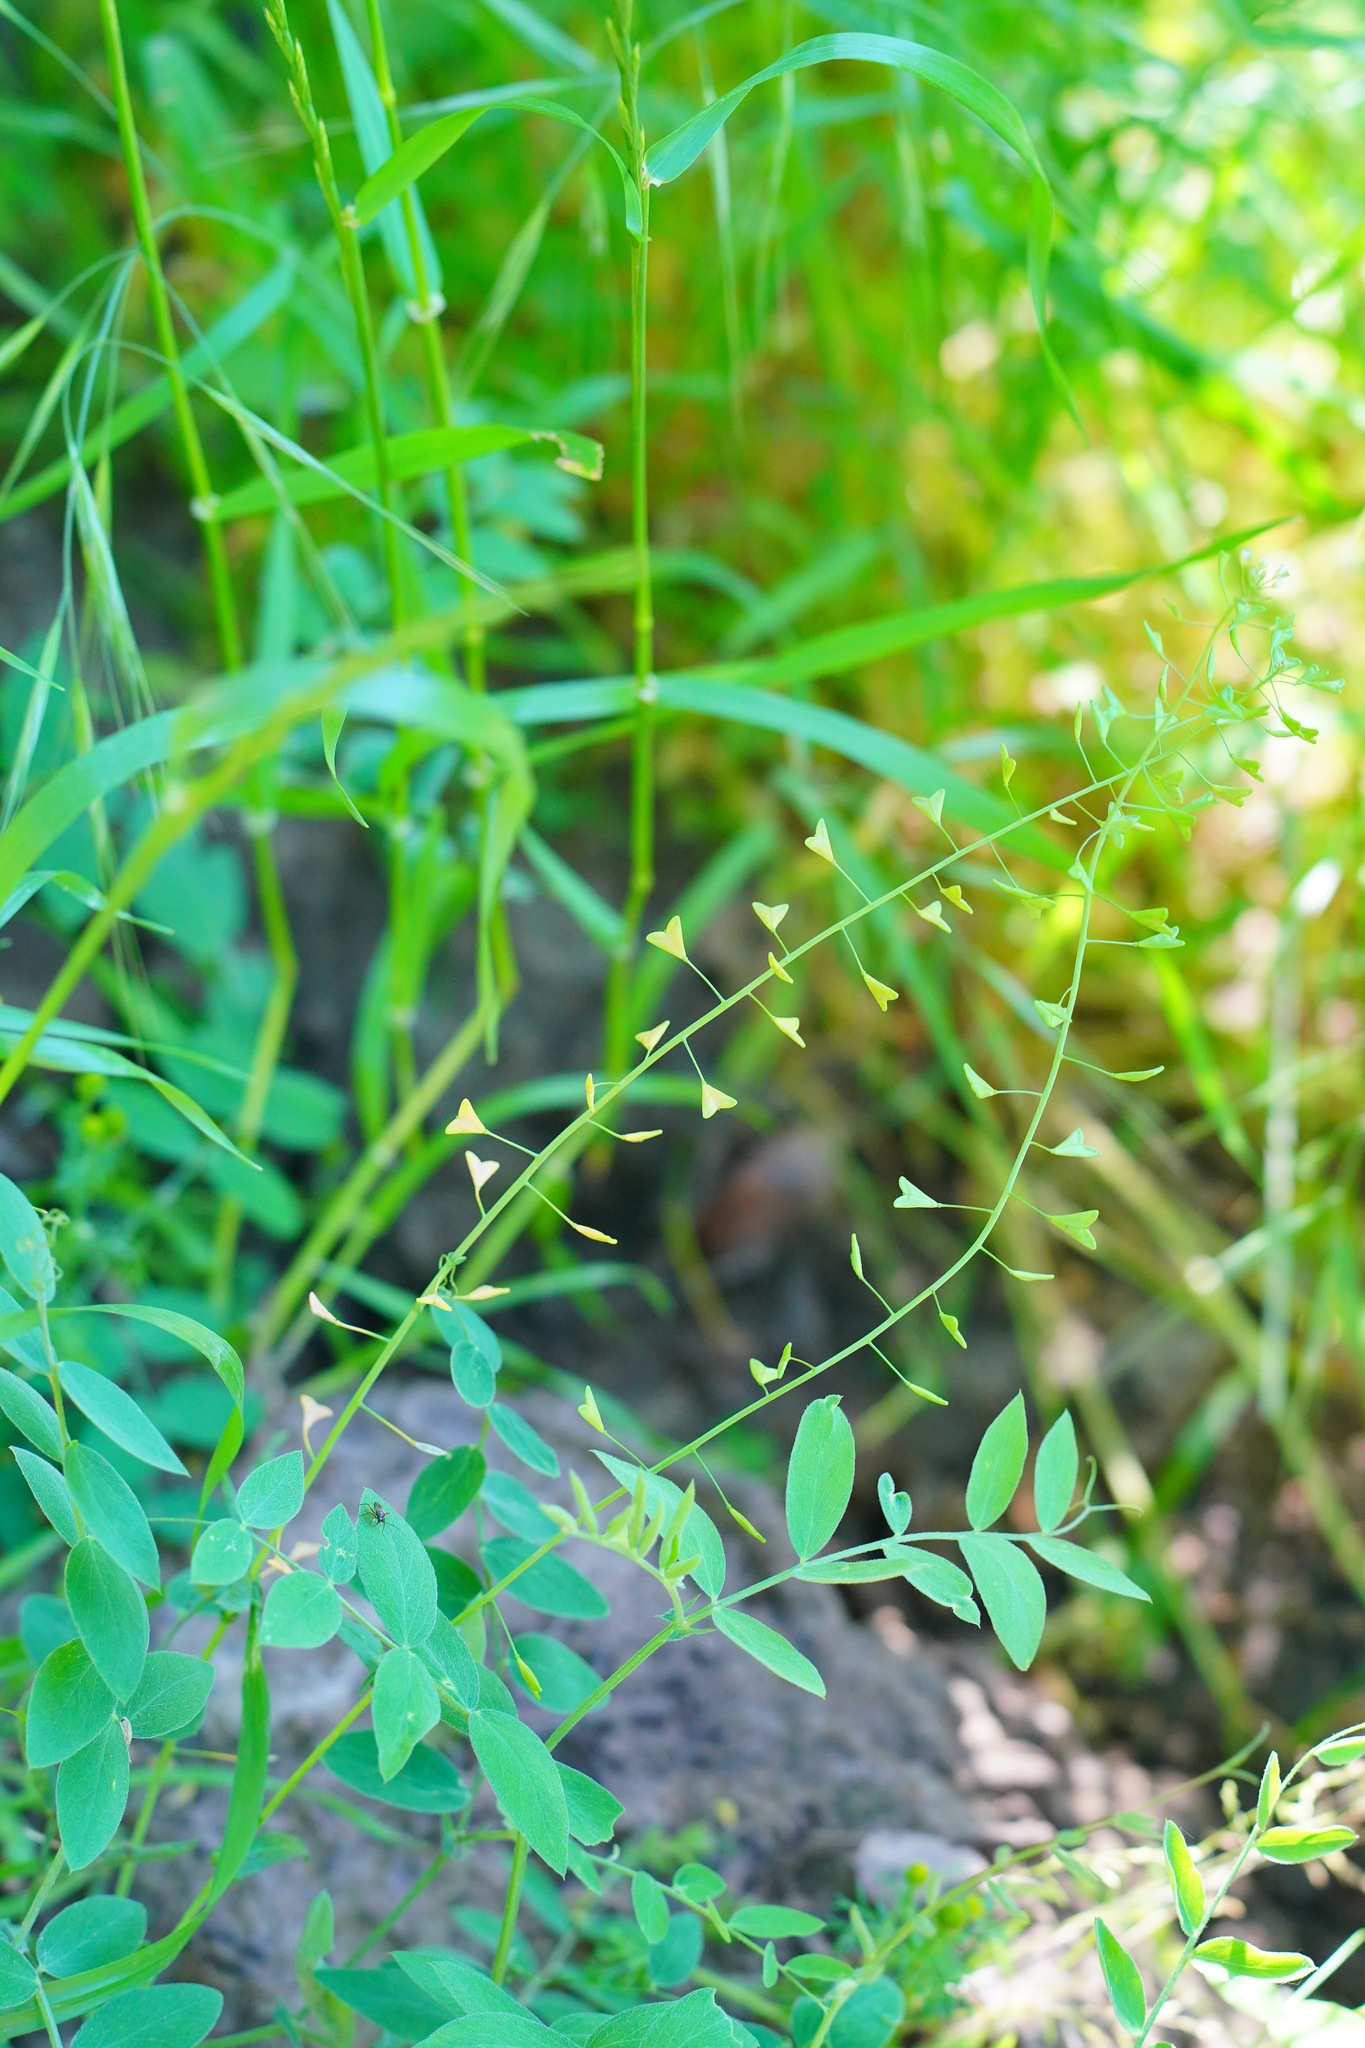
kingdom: Plantae
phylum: Tracheophyta
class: Magnoliopsida
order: Brassicales
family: Brassicaceae
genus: Capsella
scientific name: Capsella bursa-pastoris
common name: Shepherd's purse
